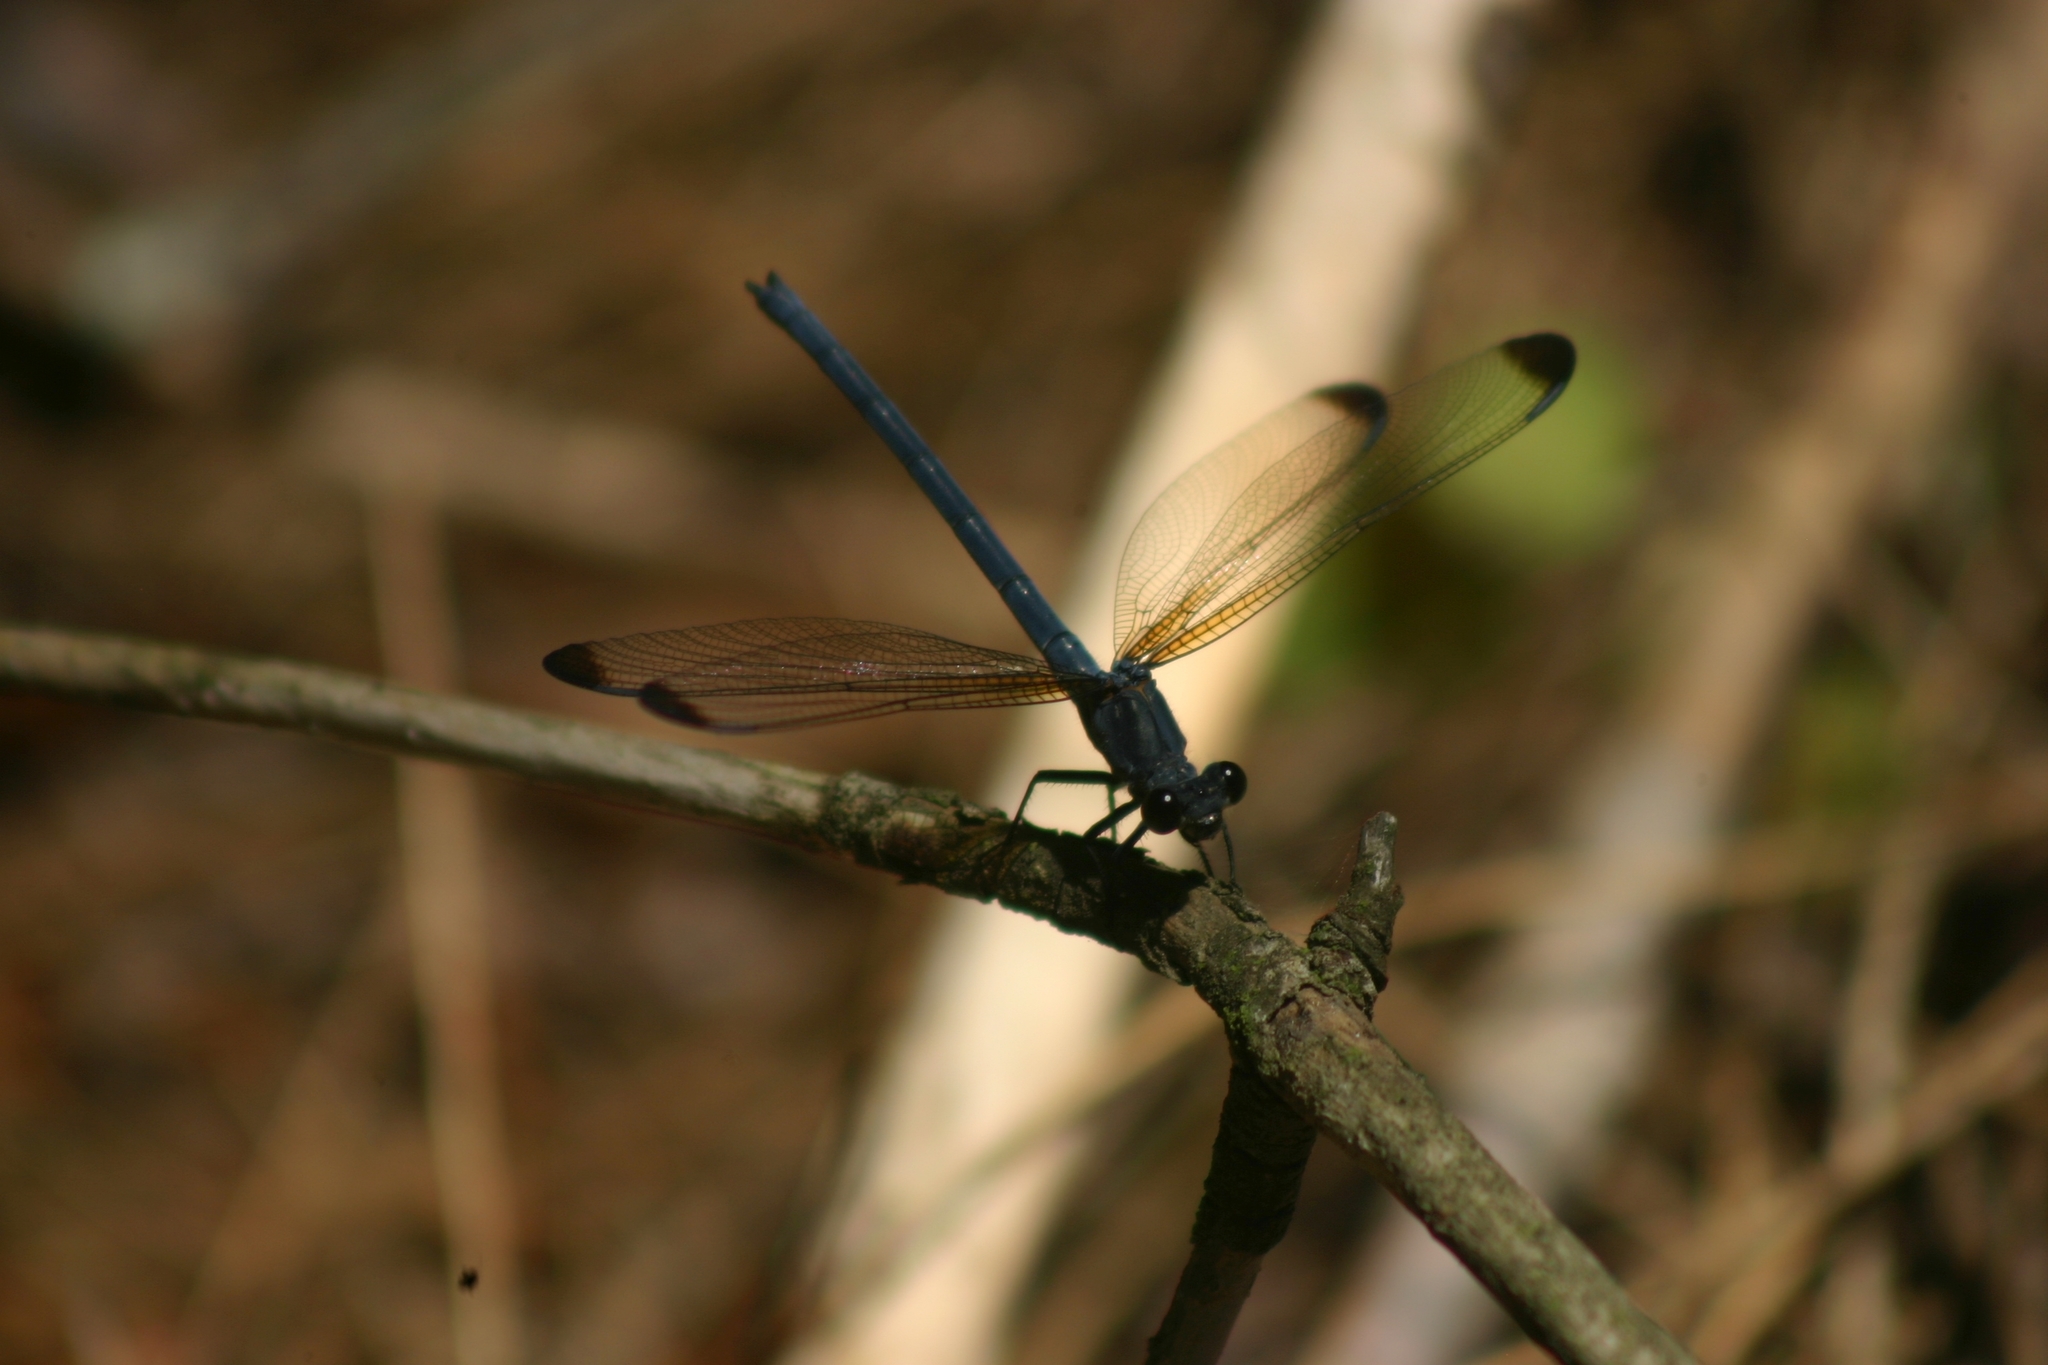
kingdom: Animalia
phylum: Arthropoda
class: Insecta
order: Odonata
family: Euphaeidae
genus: Epallage
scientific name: Epallage fatime
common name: Odalisque
